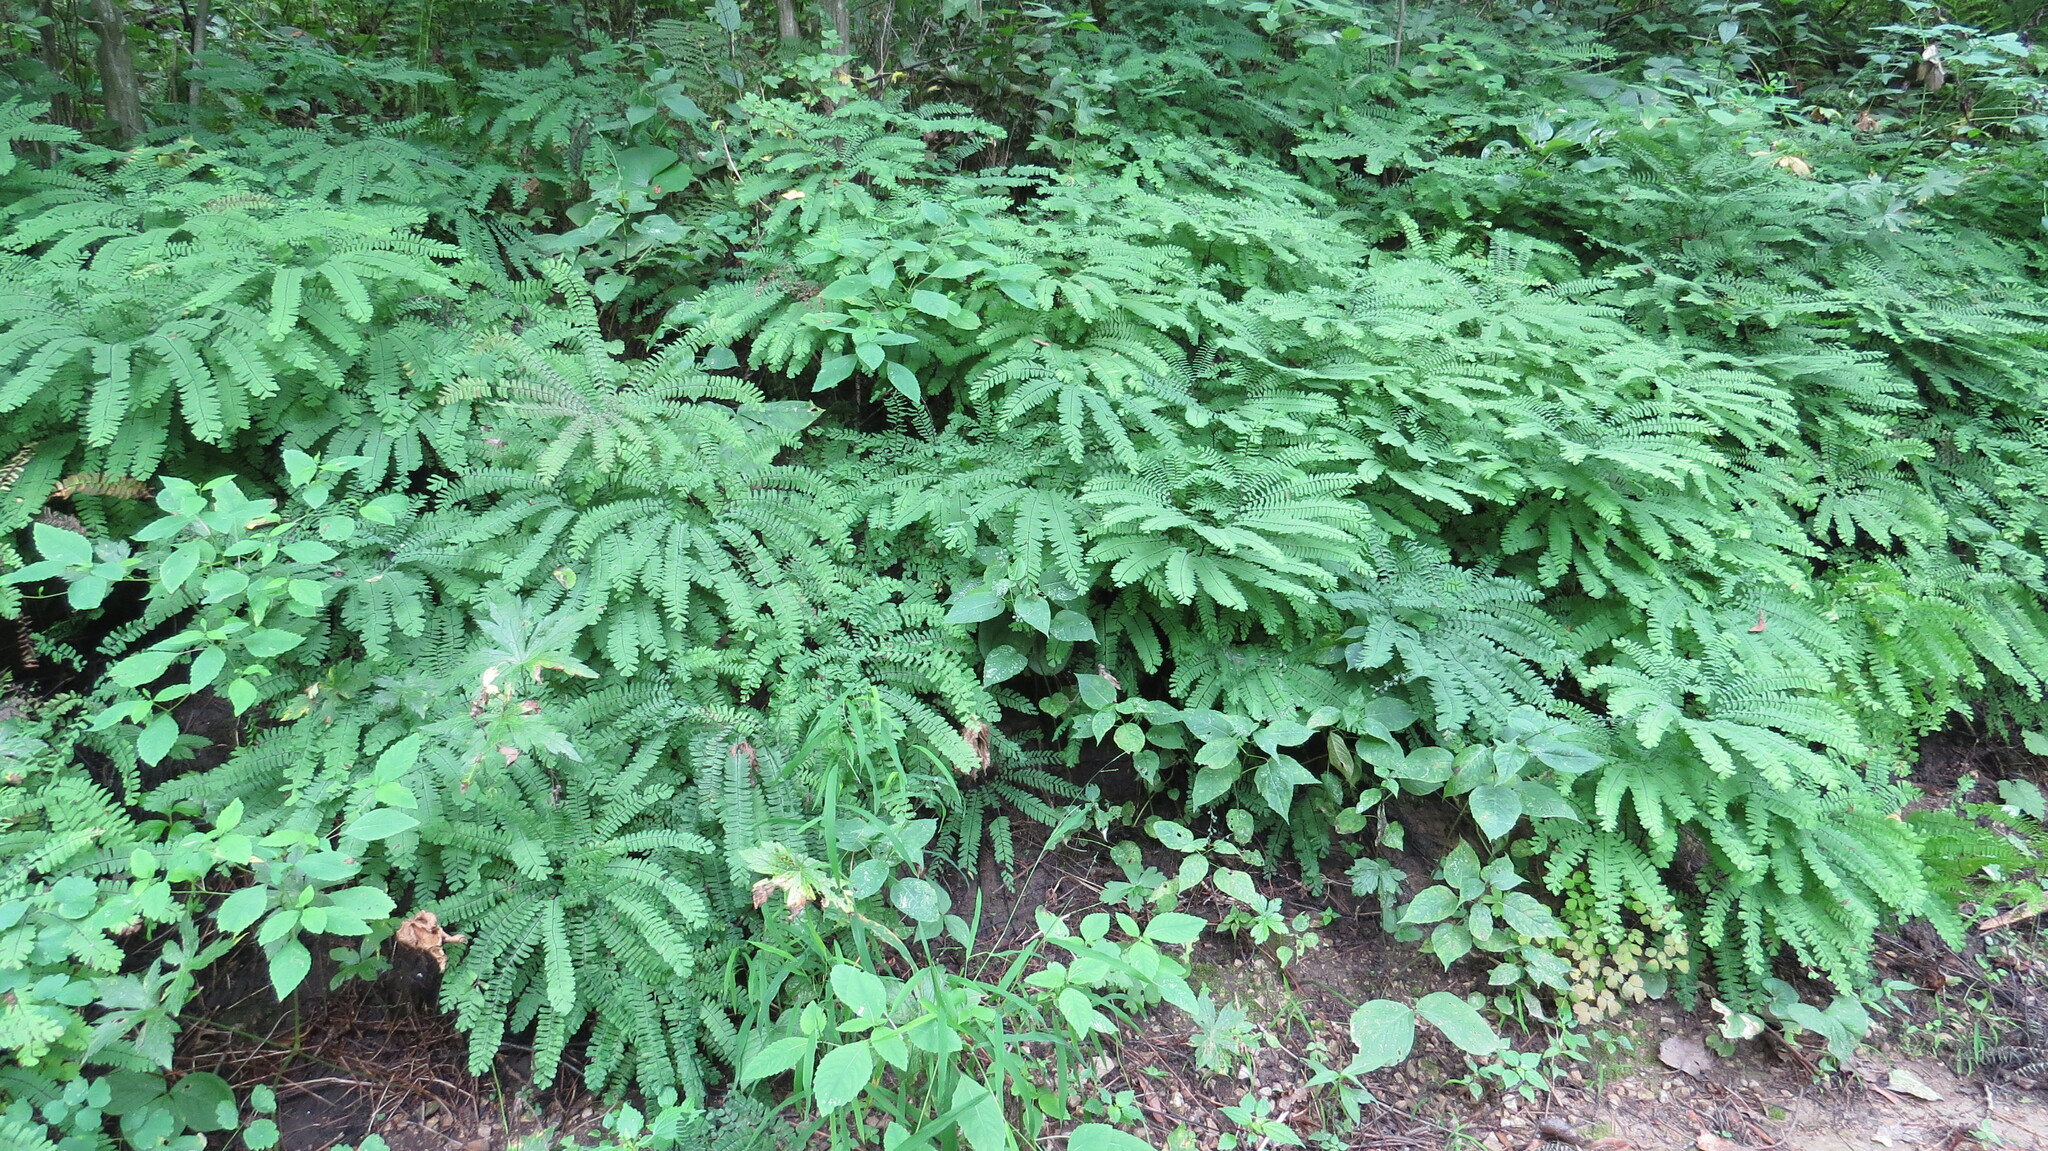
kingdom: Plantae
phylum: Tracheophyta
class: Polypodiopsida
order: Polypodiales
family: Pteridaceae
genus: Adiantum
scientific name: Adiantum pedatum
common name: Five-finger fern
